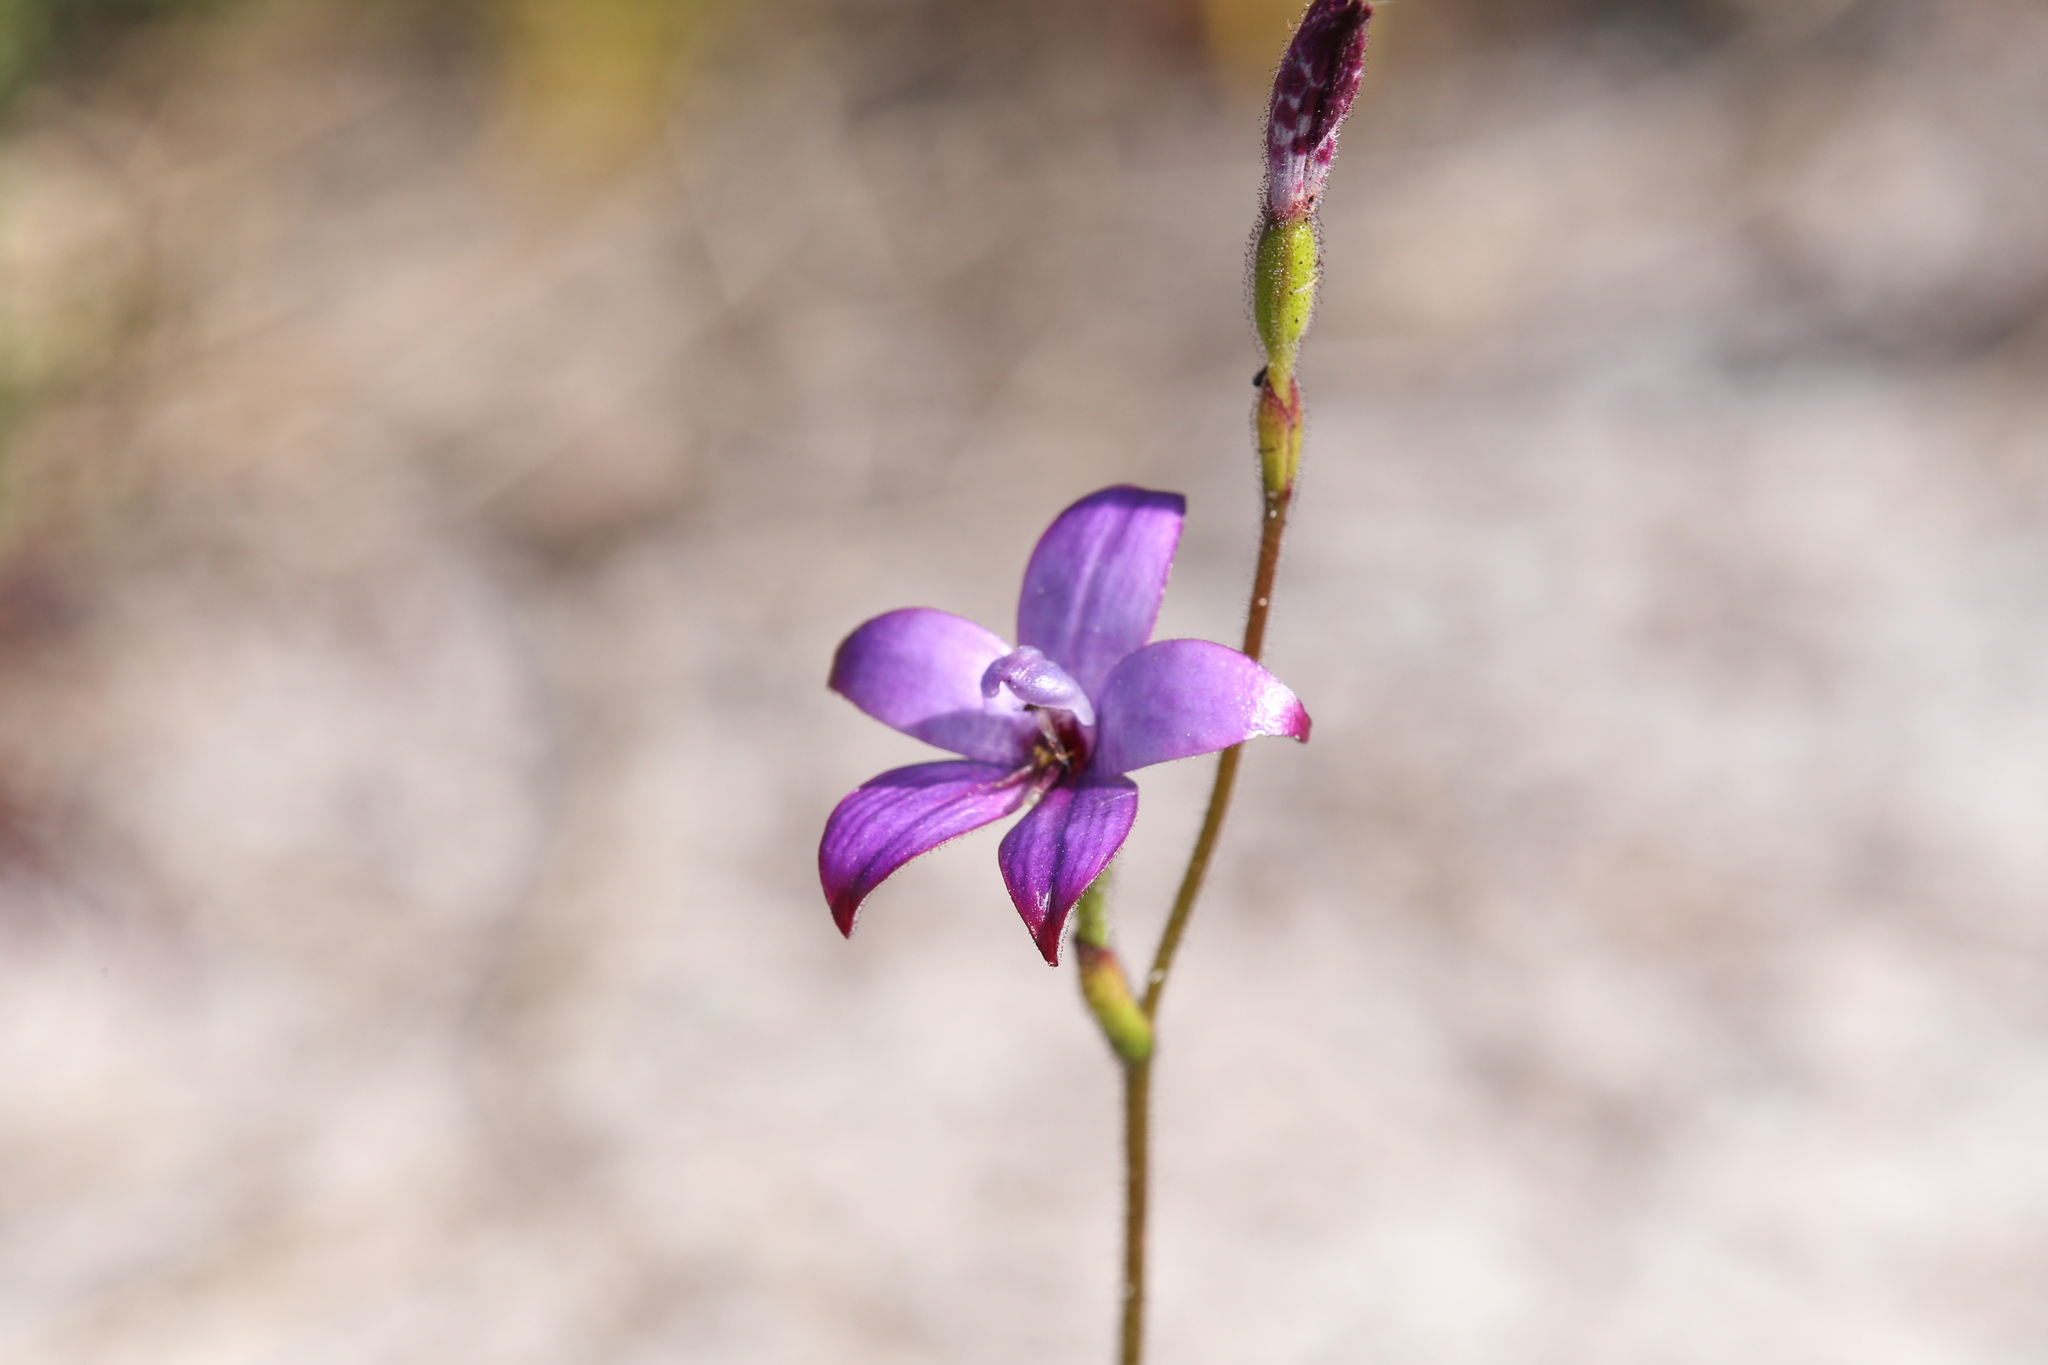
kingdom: Plantae
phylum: Tracheophyta
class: Liliopsida
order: Asparagales
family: Orchidaceae
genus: Caladenia
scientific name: Caladenia brunonis
